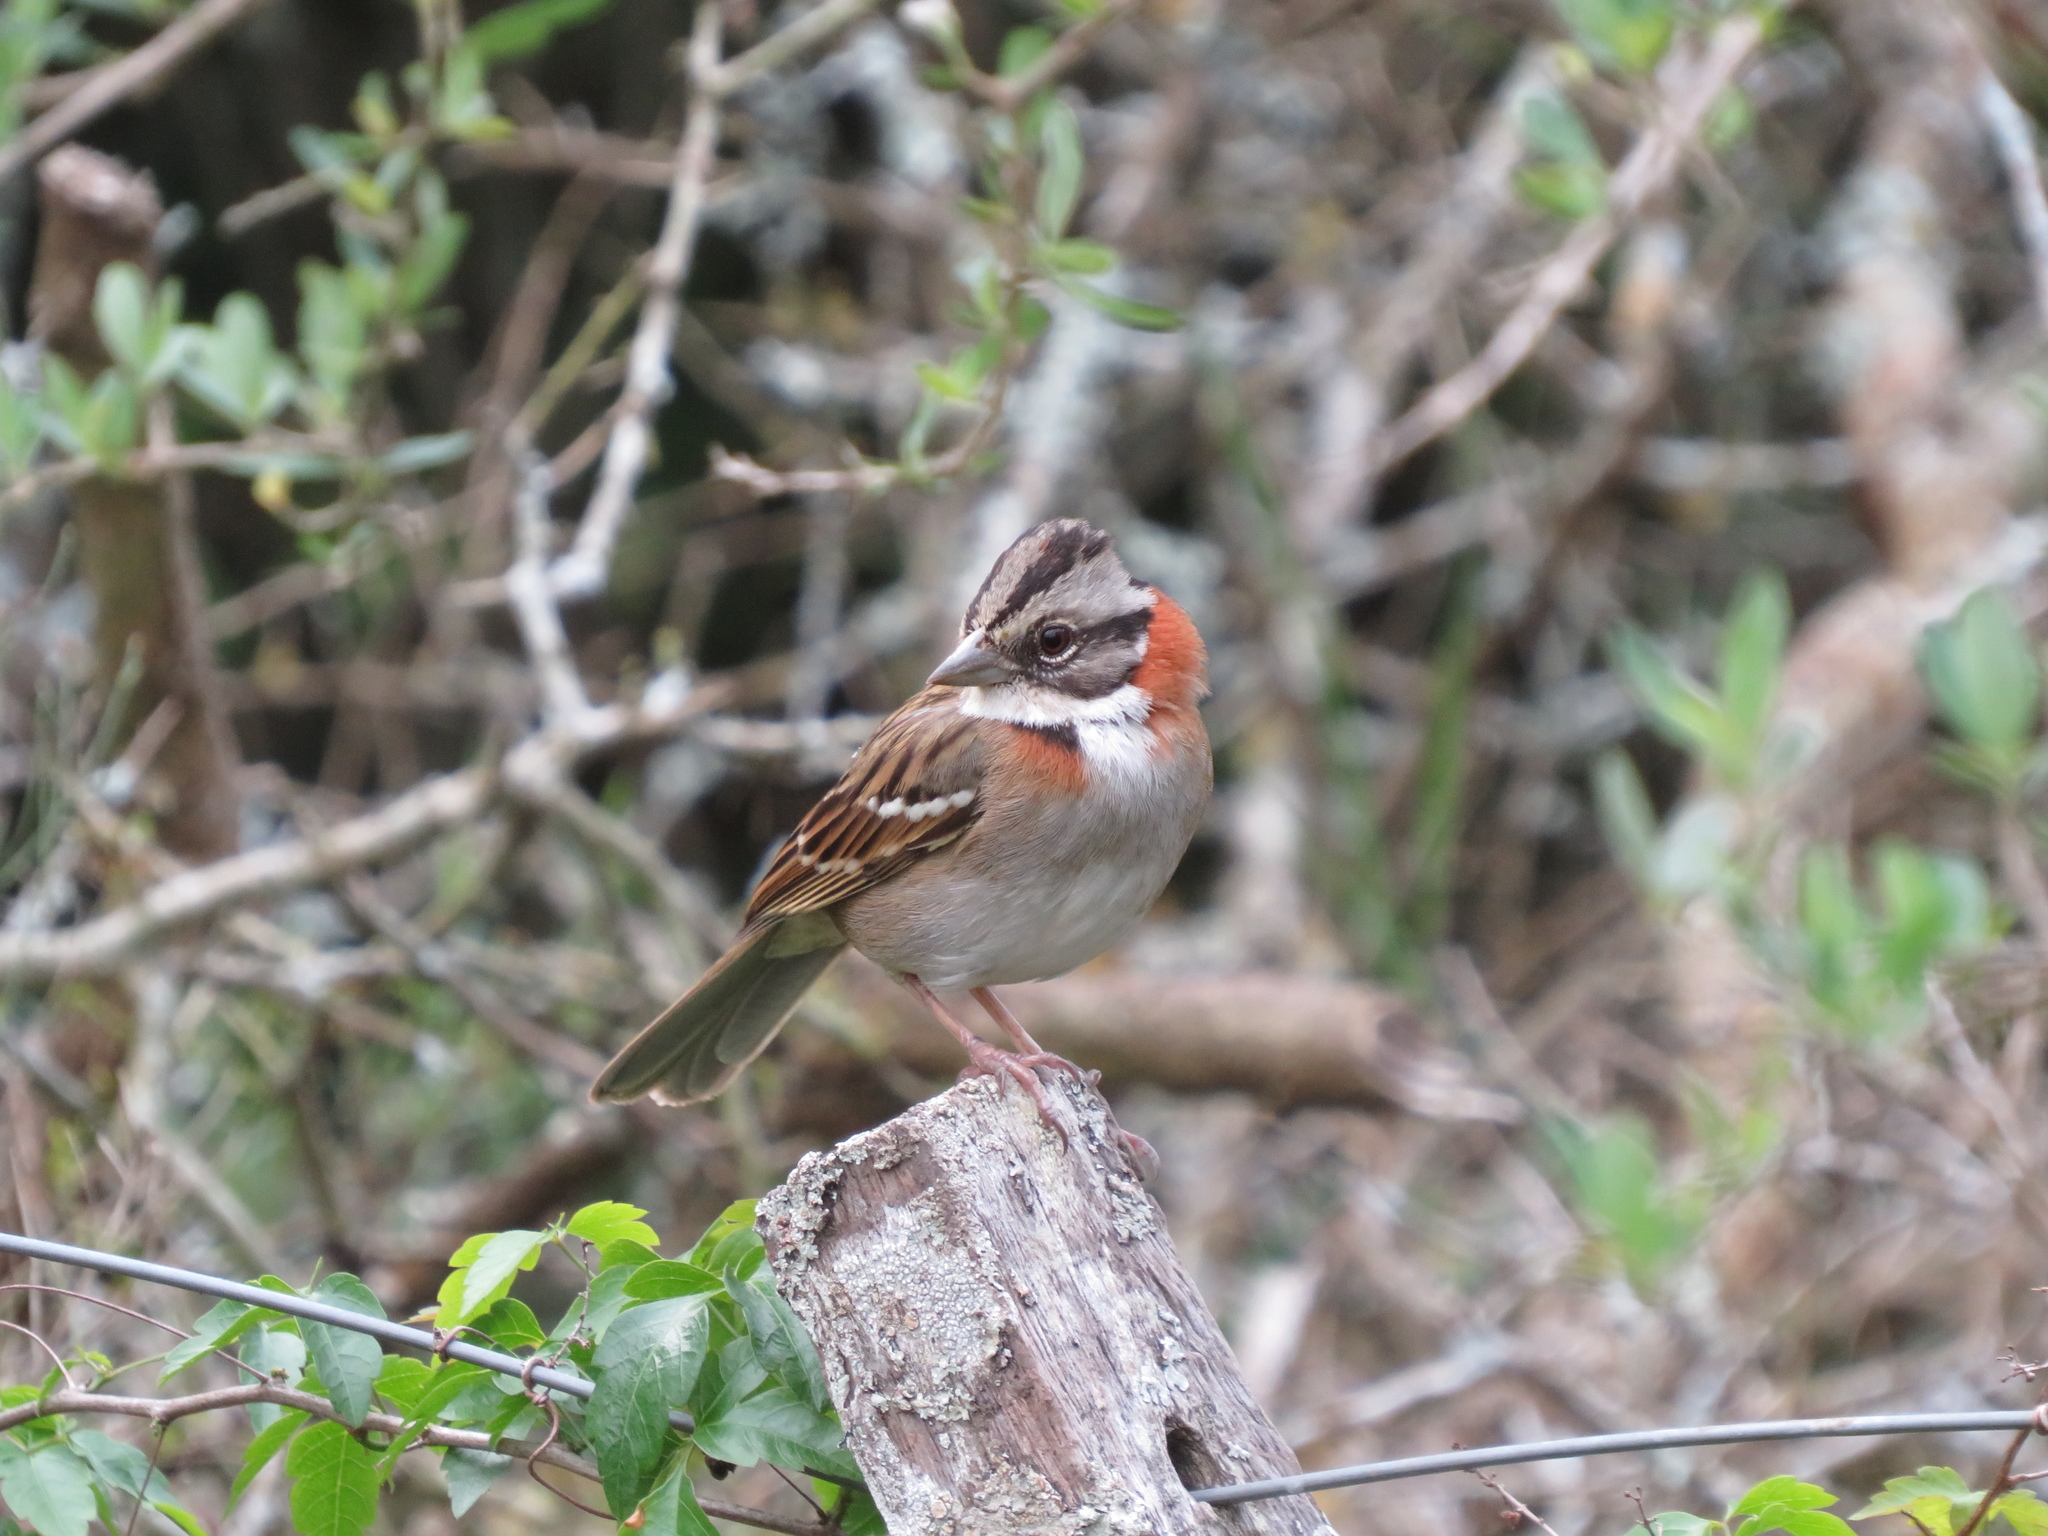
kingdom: Animalia
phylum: Chordata
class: Aves
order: Passeriformes
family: Passerellidae
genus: Zonotrichia
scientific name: Zonotrichia capensis
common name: Rufous-collared sparrow
